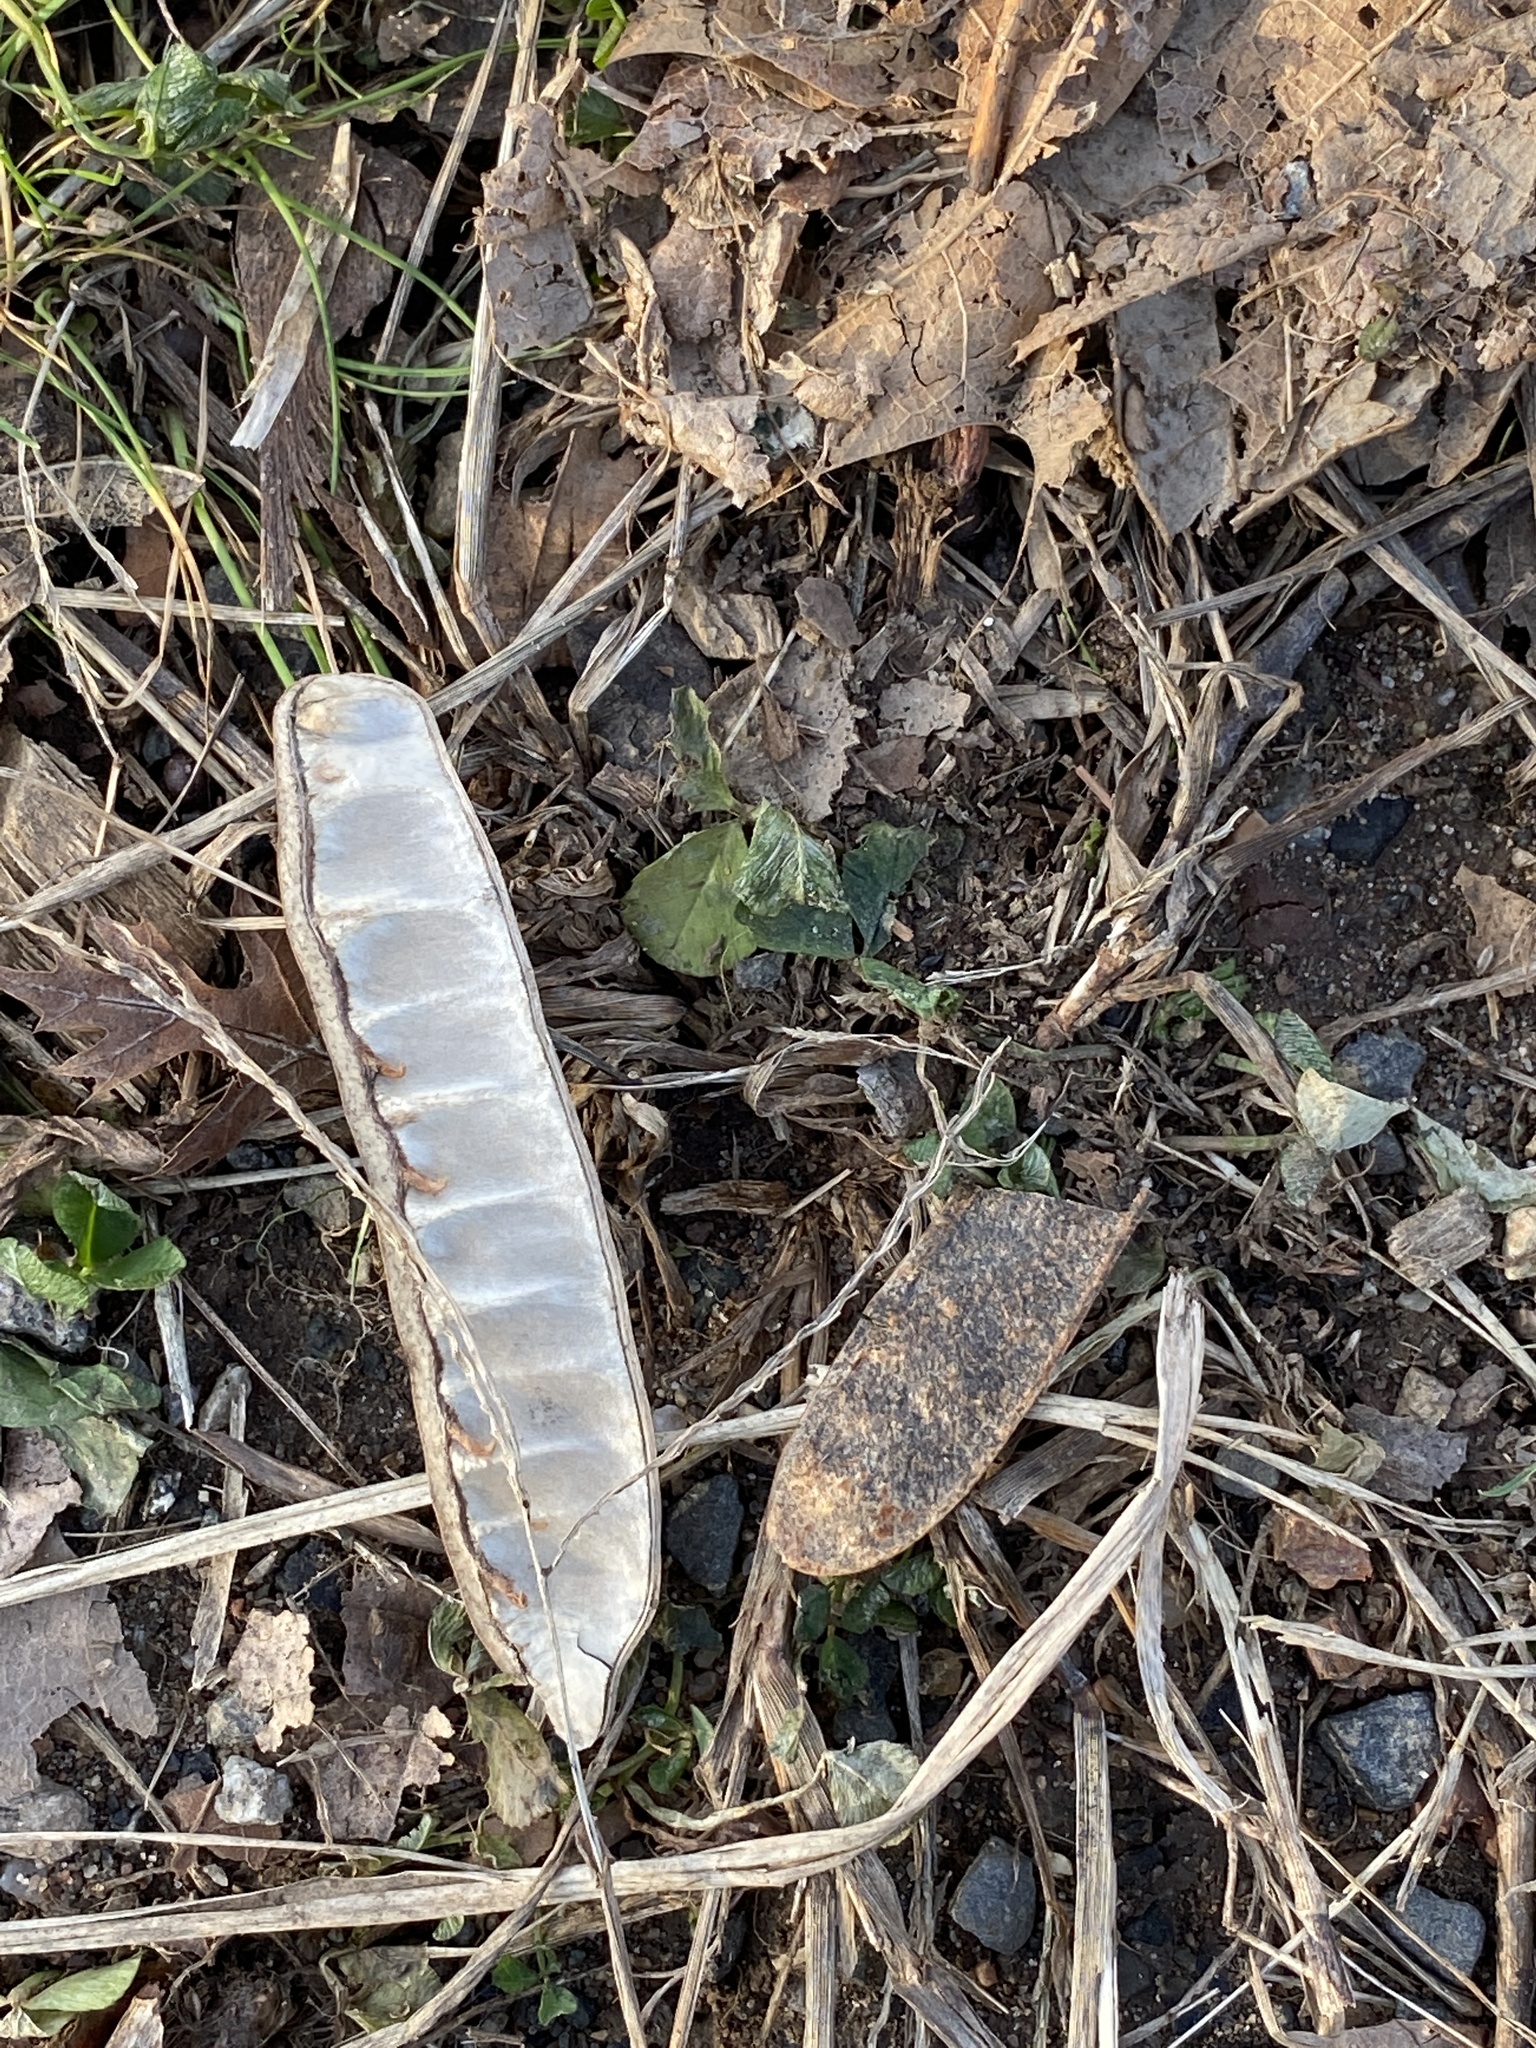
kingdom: Plantae
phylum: Tracheophyta
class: Magnoliopsida
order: Fabales
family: Fabaceae
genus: Robinia
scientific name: Robinia pseudoacacia
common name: Black locust
